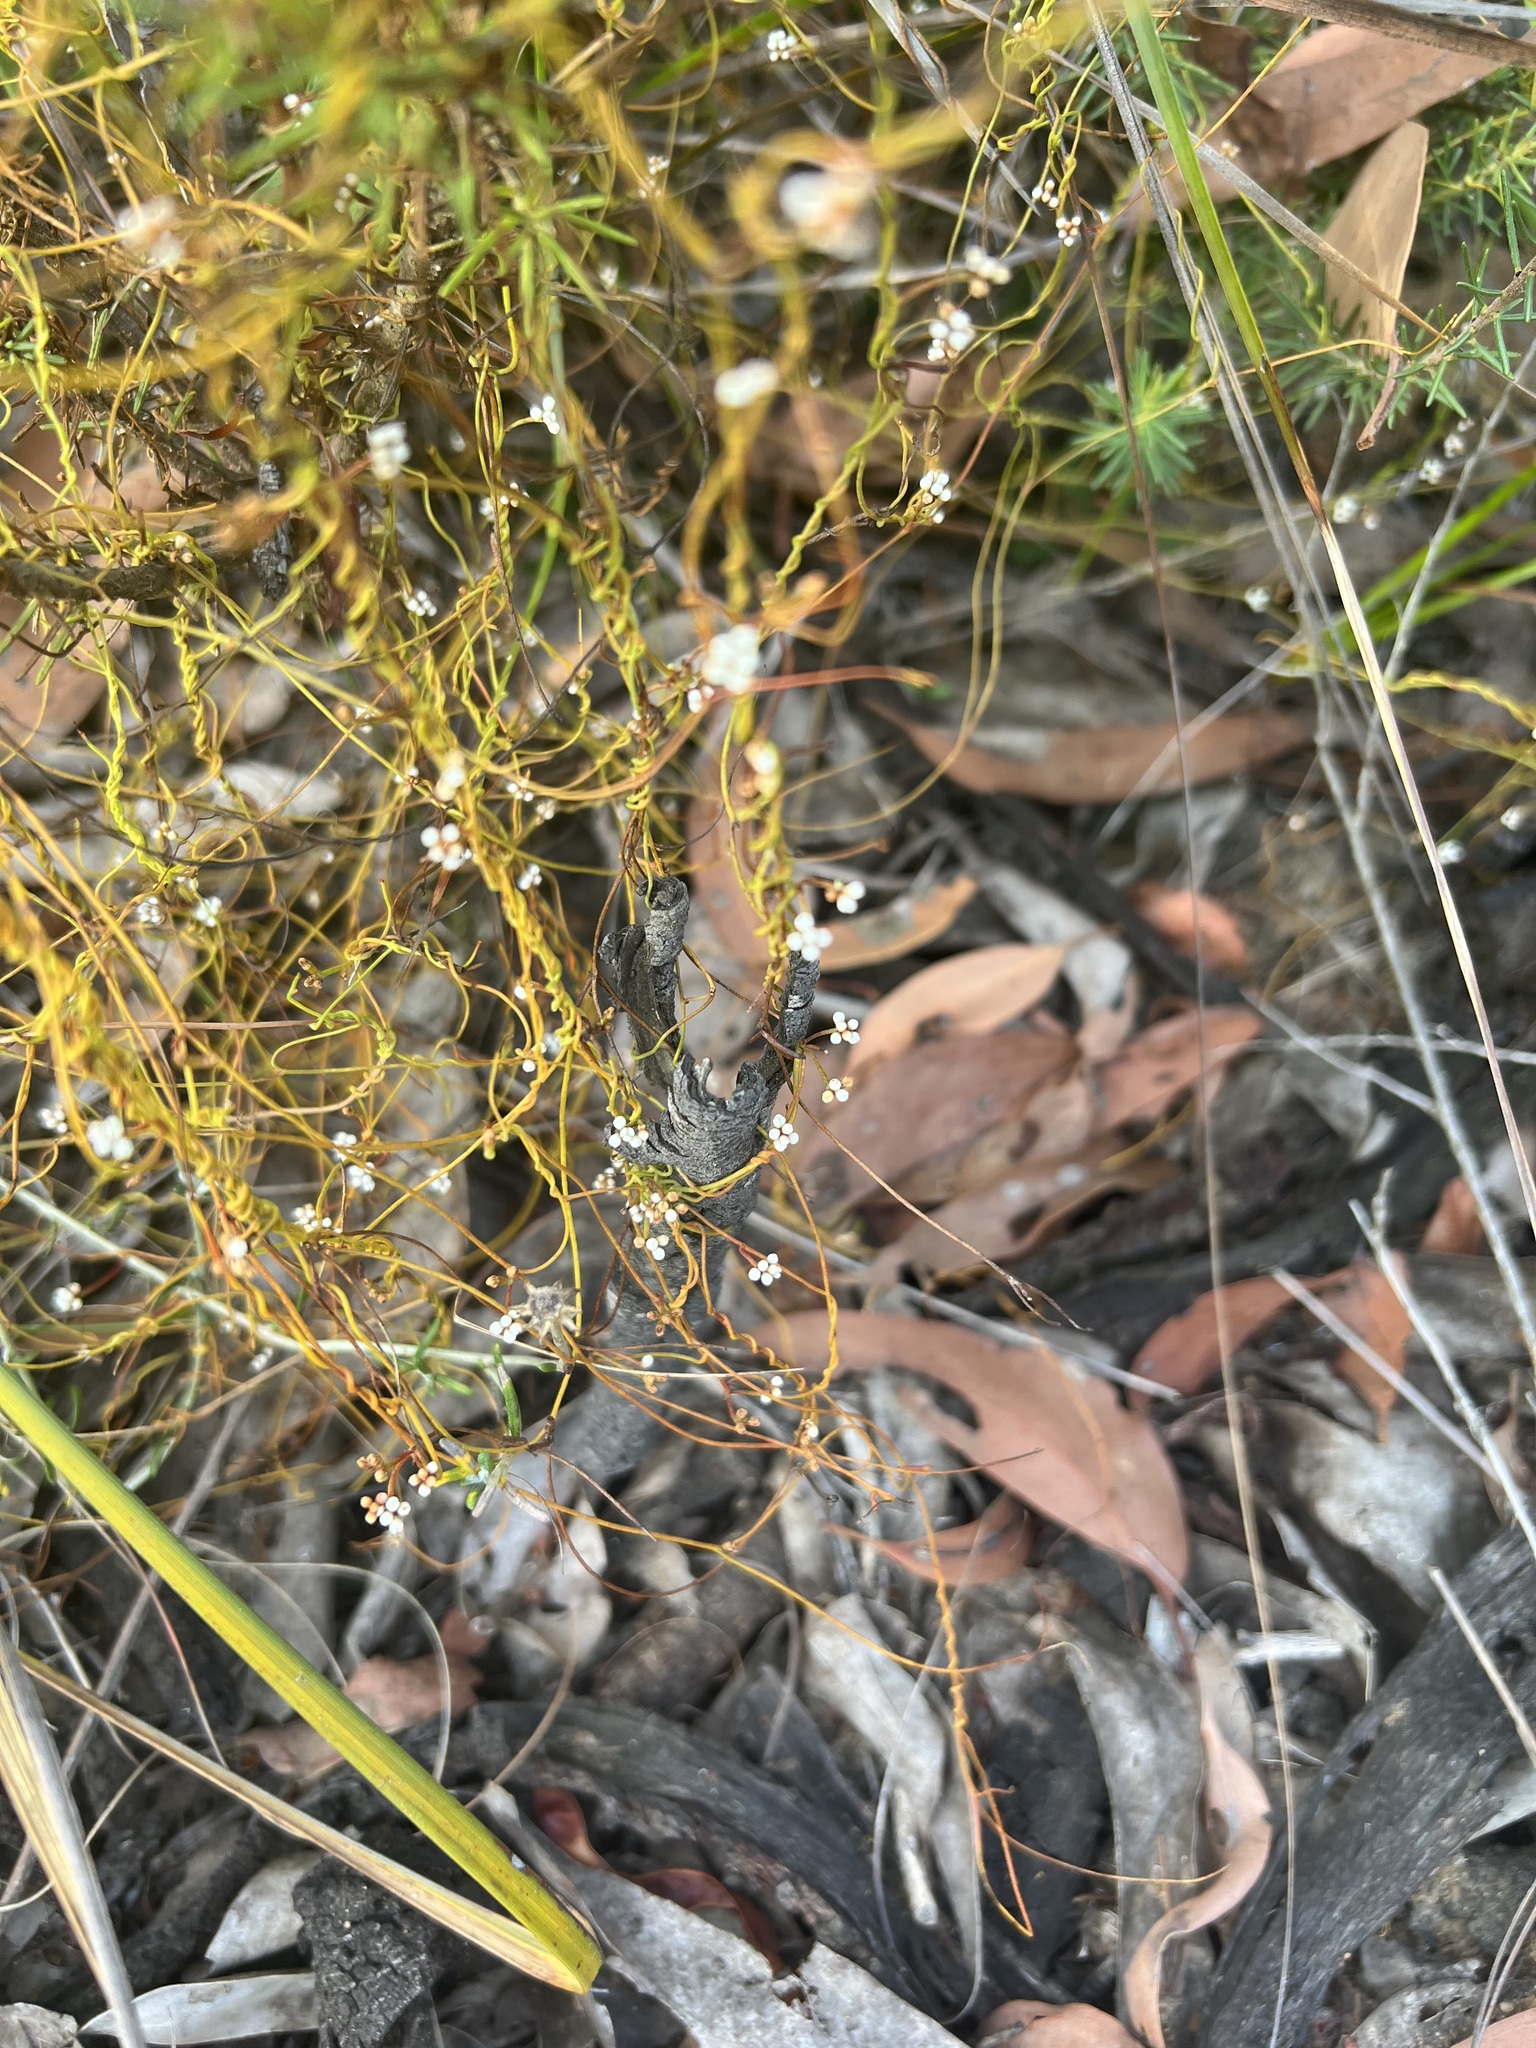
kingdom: Plantae
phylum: Tracheophyta
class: Magnoliopsida
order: Laurales
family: Lauraceae
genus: Cassytha
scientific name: Cassytha glabella
